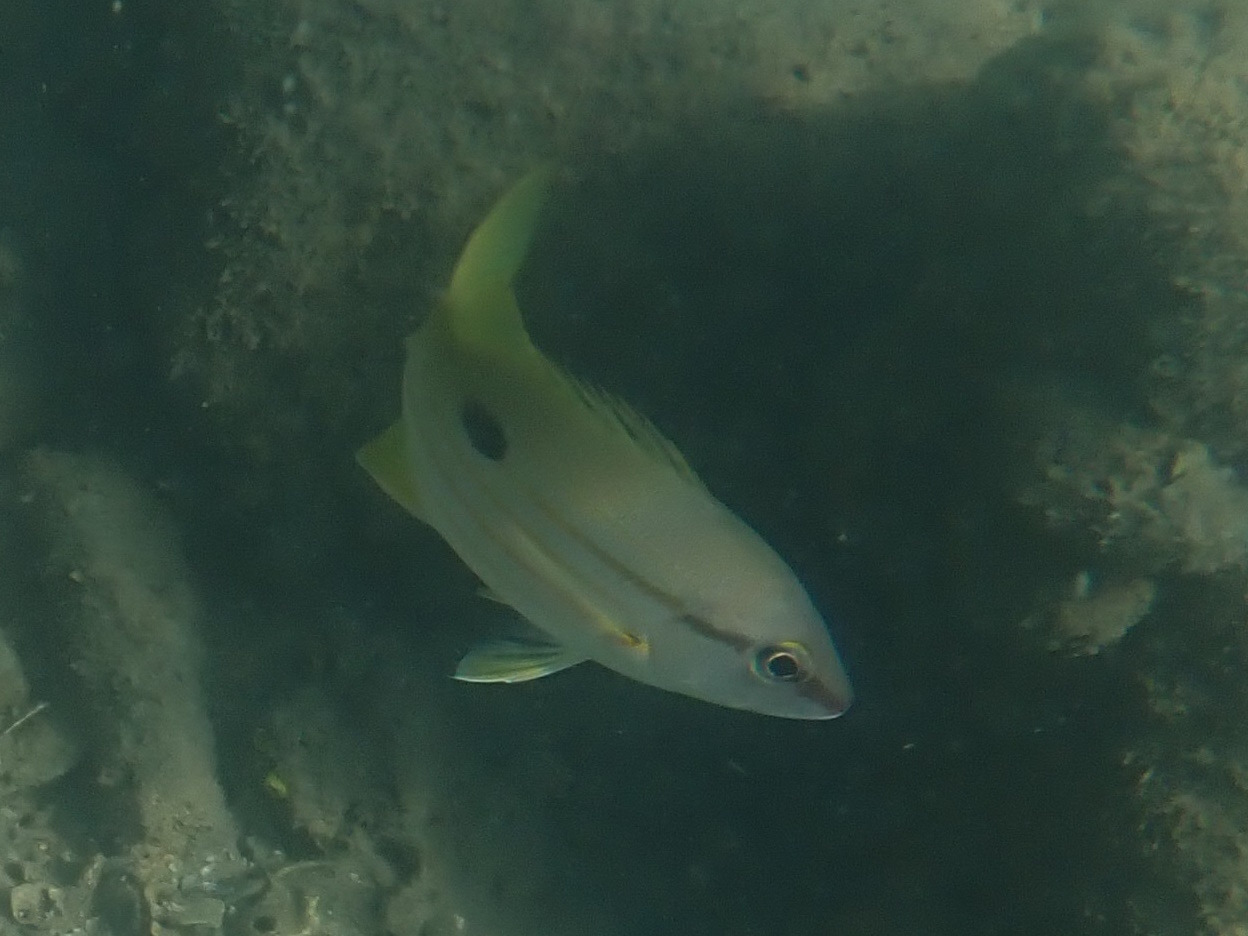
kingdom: Animalia
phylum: Chordata
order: Perciformes
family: Lutjanidae
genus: Lutjanus
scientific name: Lutjanus fulviflamma
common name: Blackspot snapper
